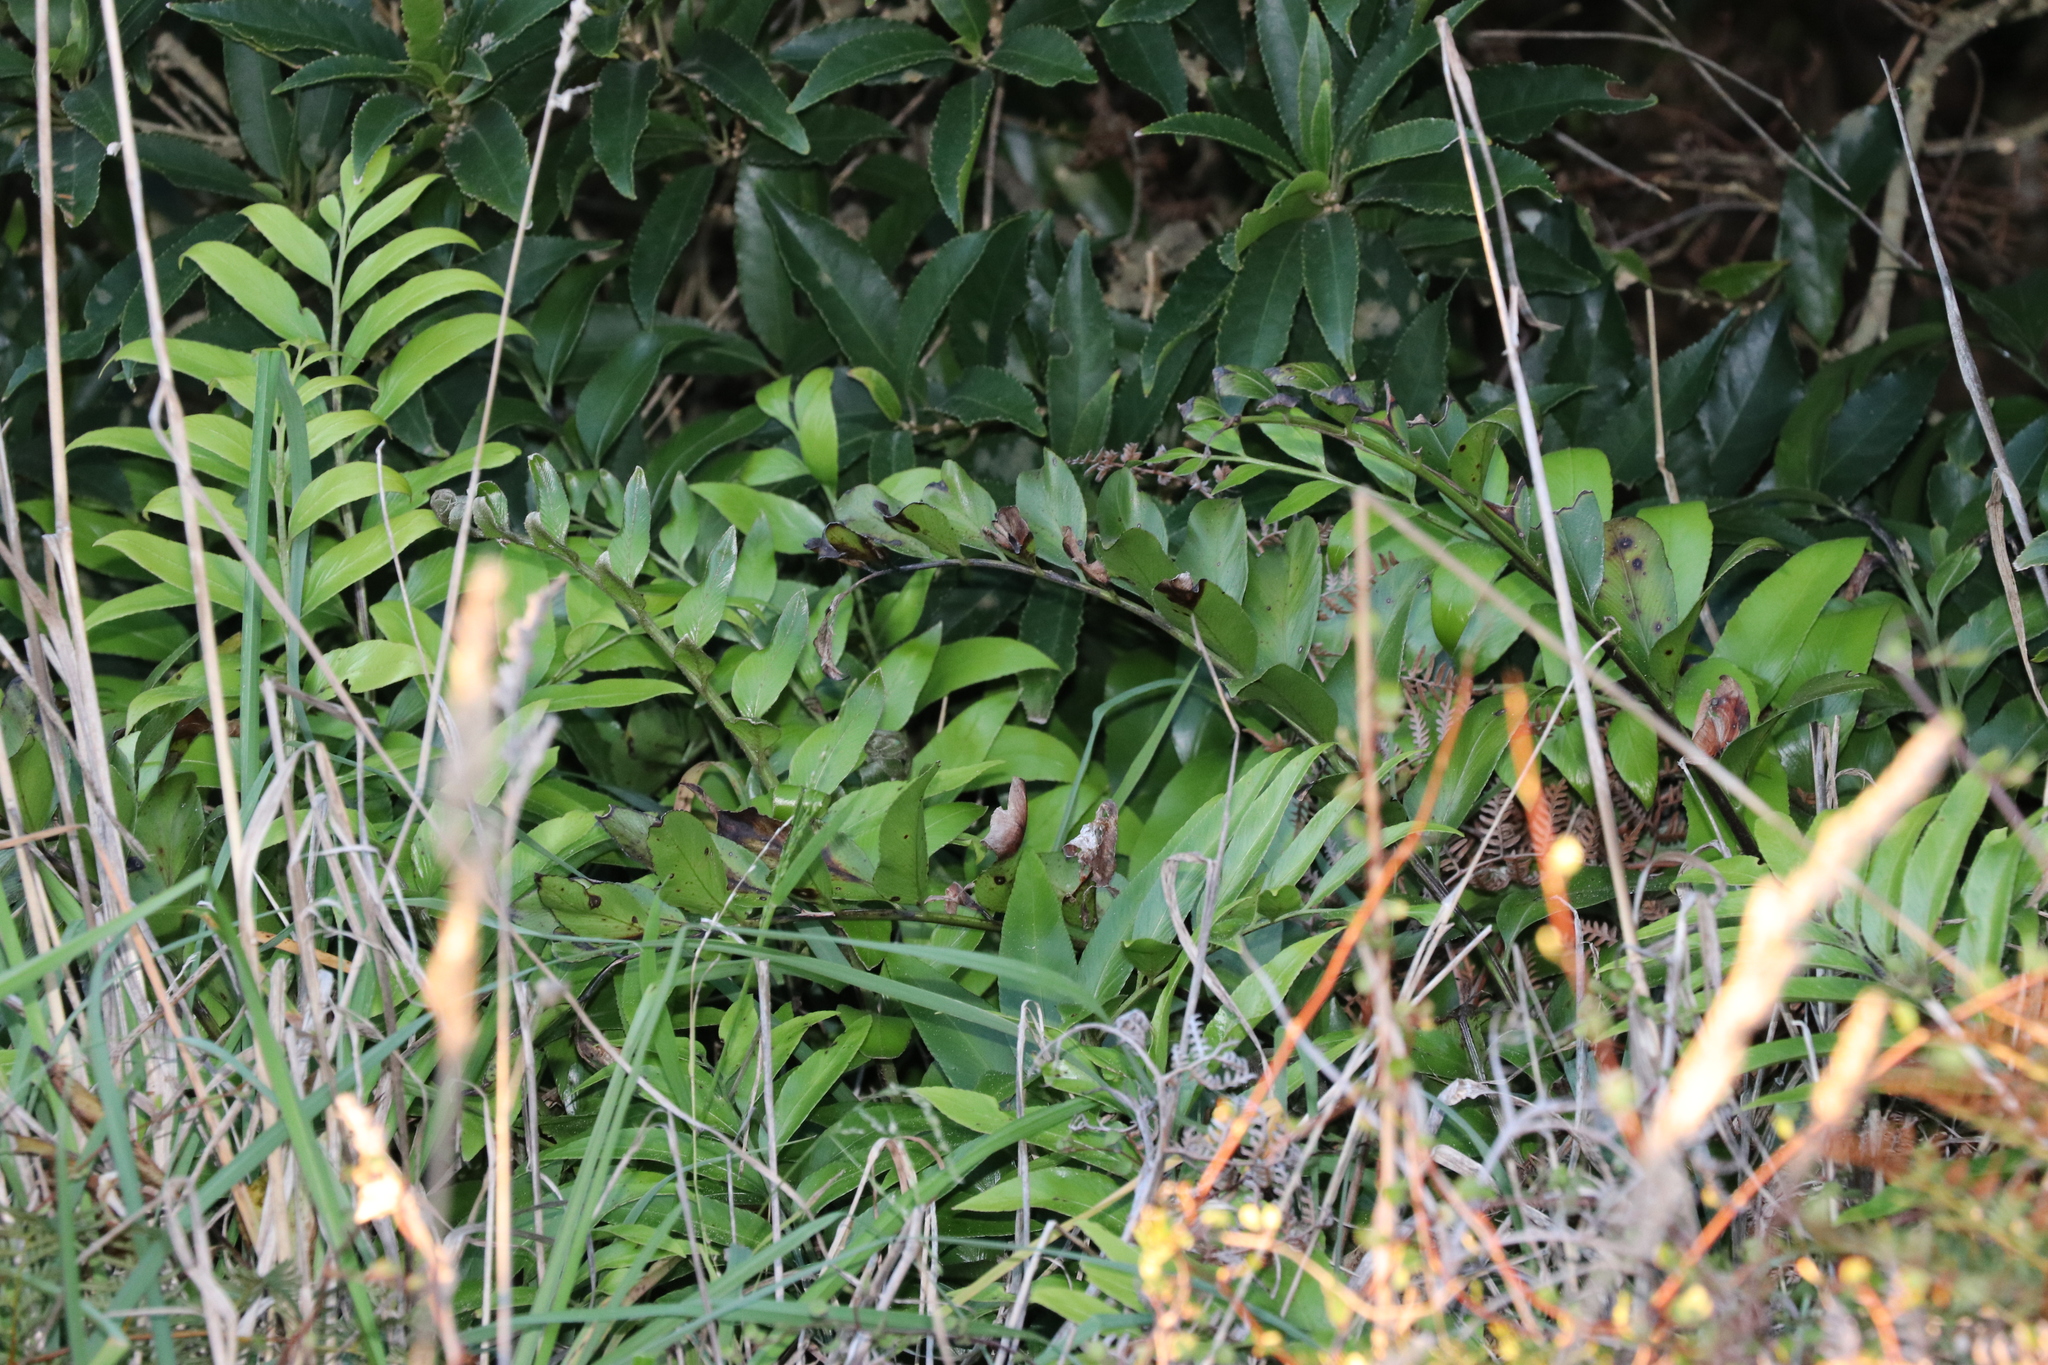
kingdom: Plantae
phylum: Tracheophyta
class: Polypodiopsida
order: Polypodiales
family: Aspleniaceae
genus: Asplenium
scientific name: Asplenium oblongifolium
